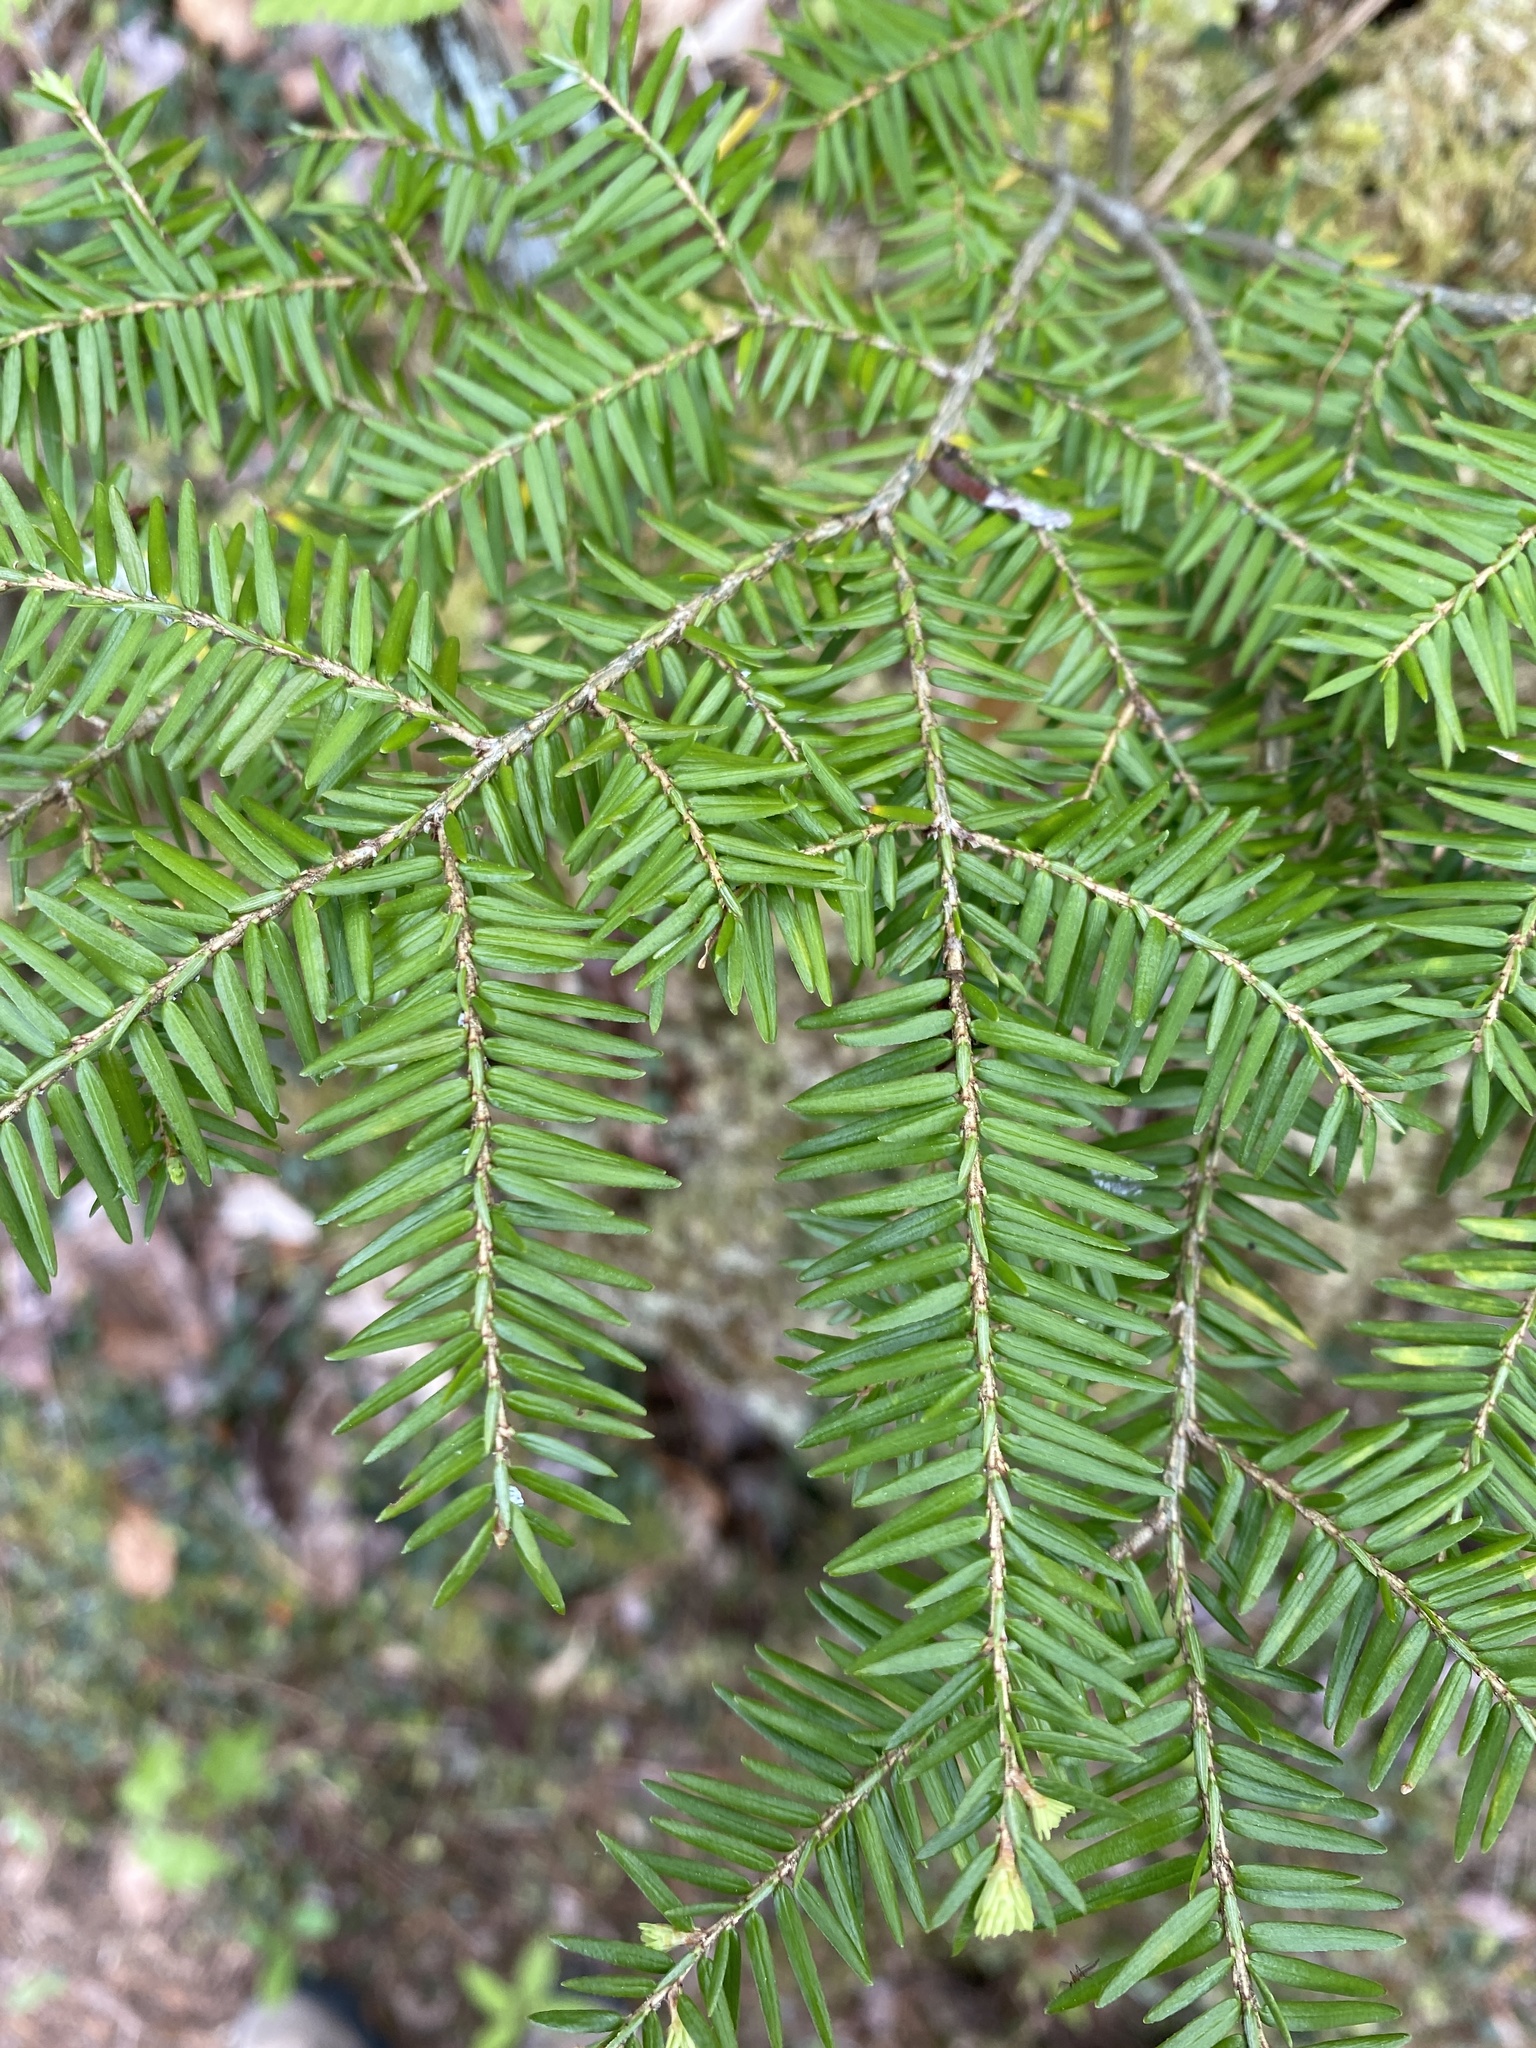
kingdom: Plantae
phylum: Tracheophyta
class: Pinopsida
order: Pinales
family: Pinaceae
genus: Tsuga
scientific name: Tsuga canadensis
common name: Eastern hemlock
